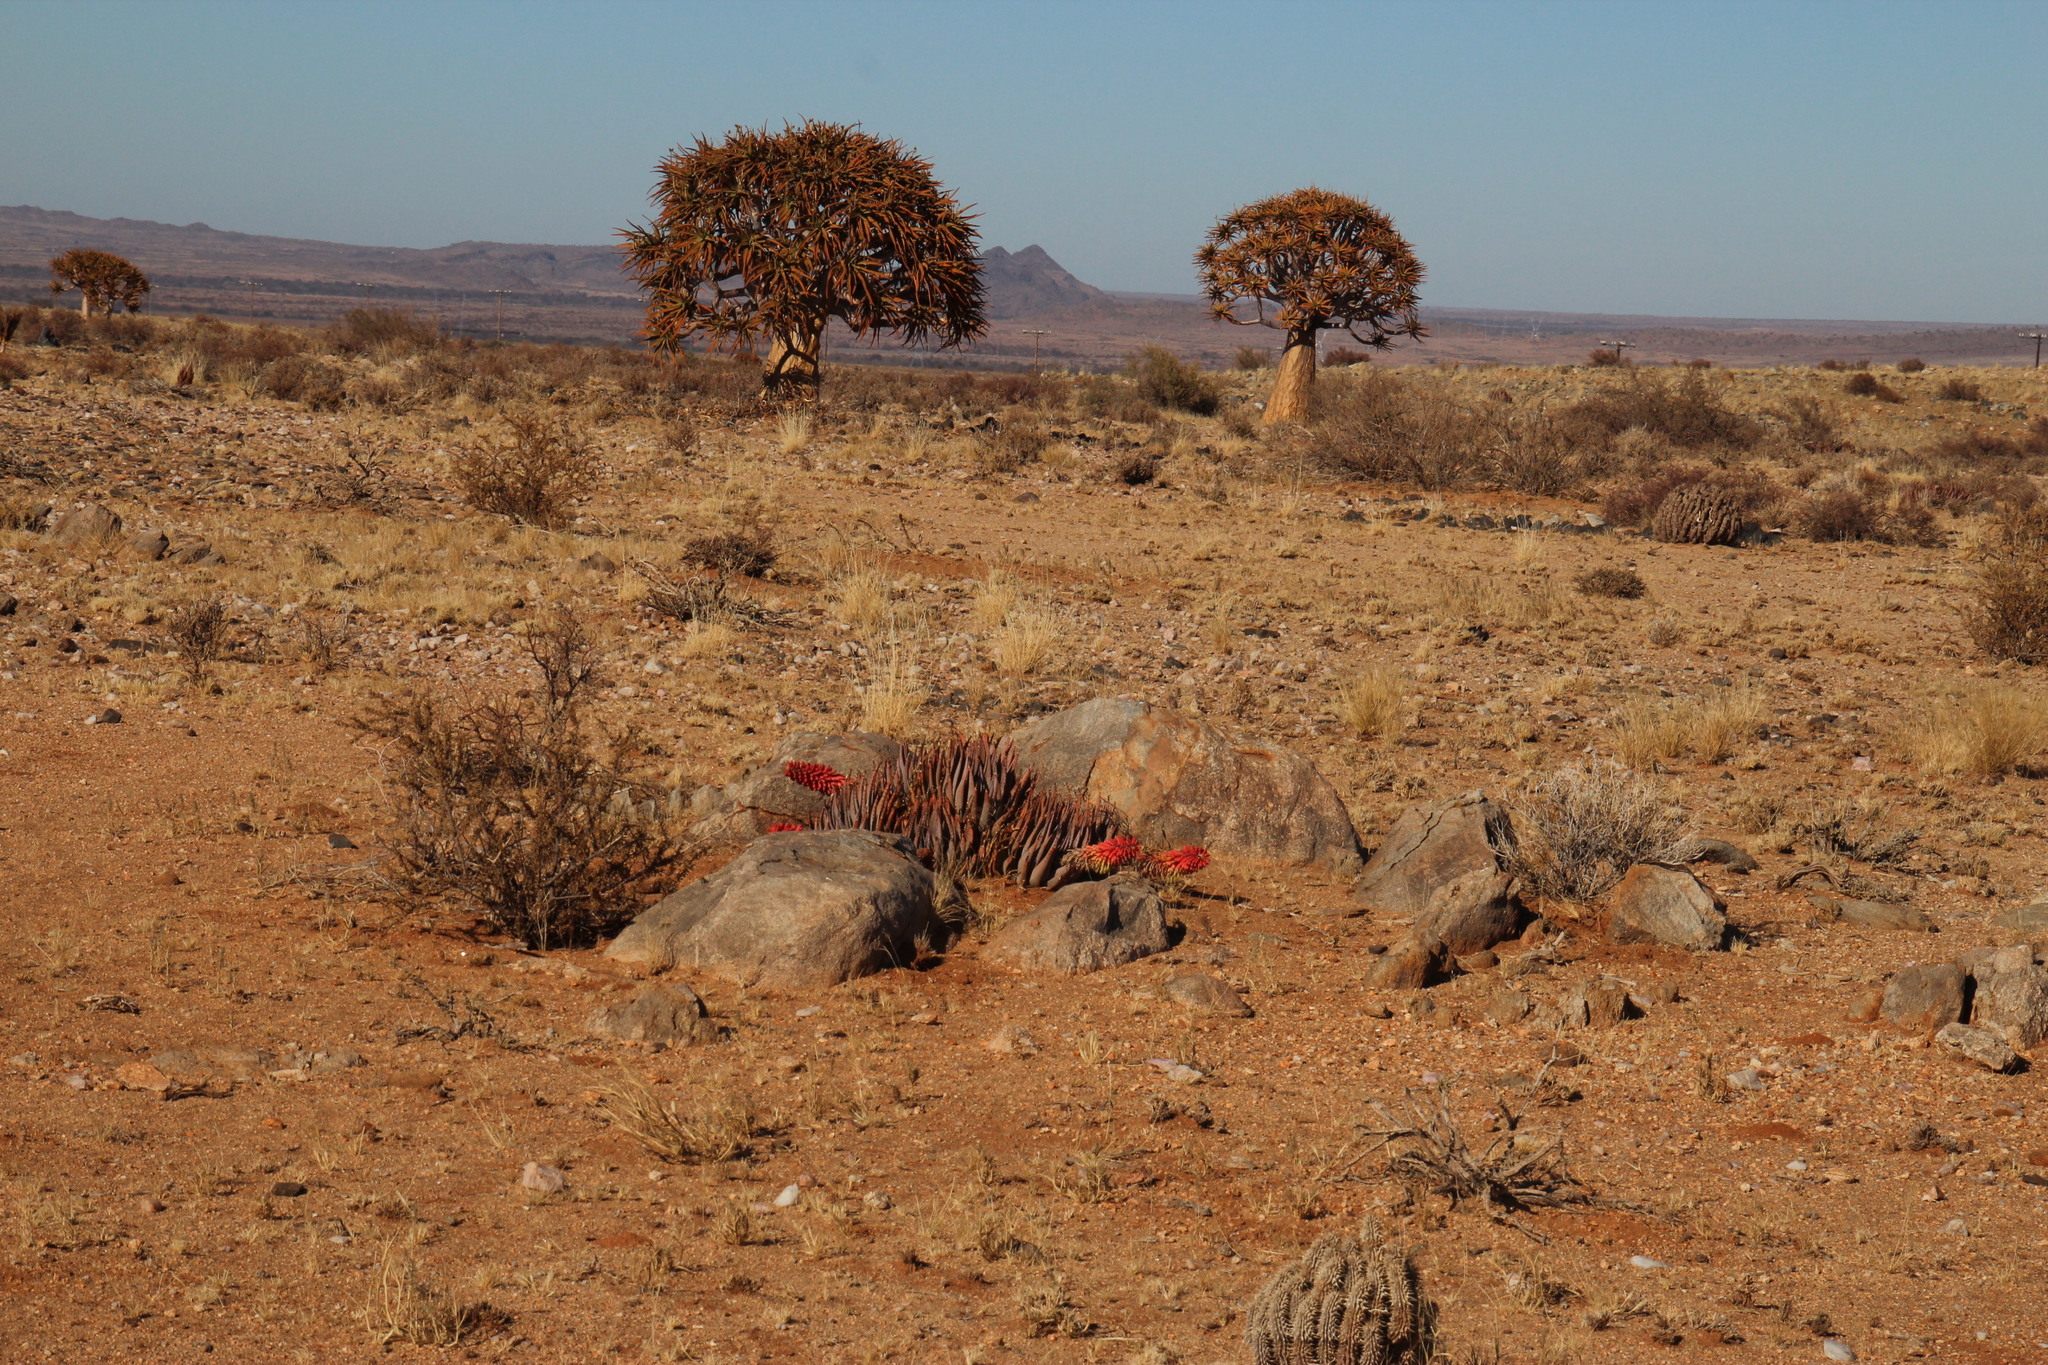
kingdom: Plantae
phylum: Tracheophyta
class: Liliopsida
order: Asparagales
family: Asphodelaceae
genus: Aloe
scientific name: Aloe claviflora
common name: Cannon aloe
